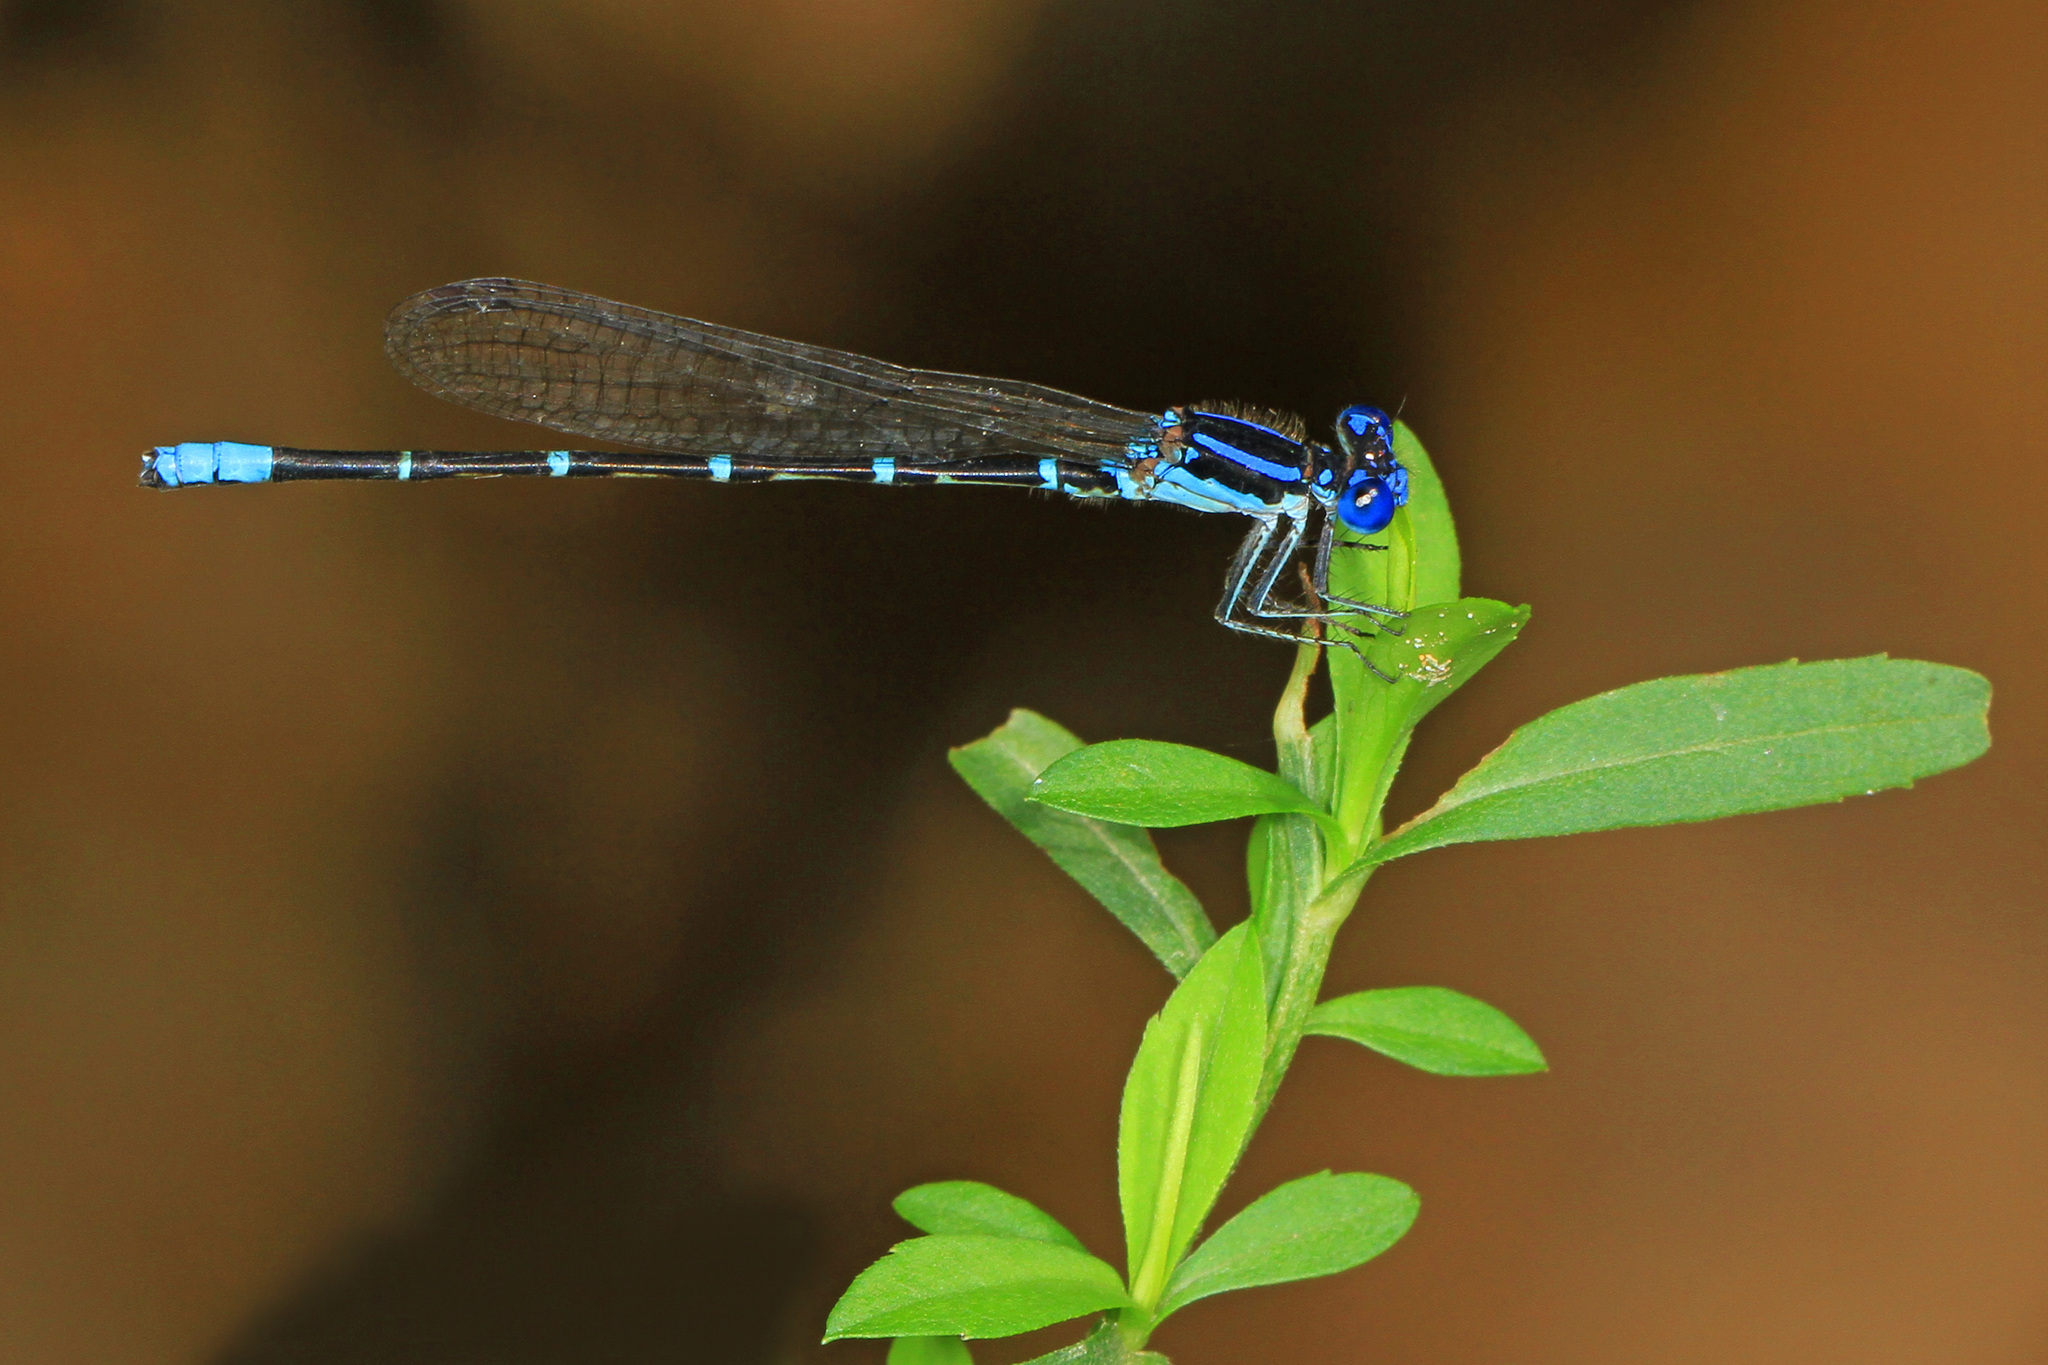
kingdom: Animalia
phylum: Arthropoda
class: Insecta
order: Odonata
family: Coenagrionidae
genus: Argia
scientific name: Argia sedula
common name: Blue-ringed dancer
